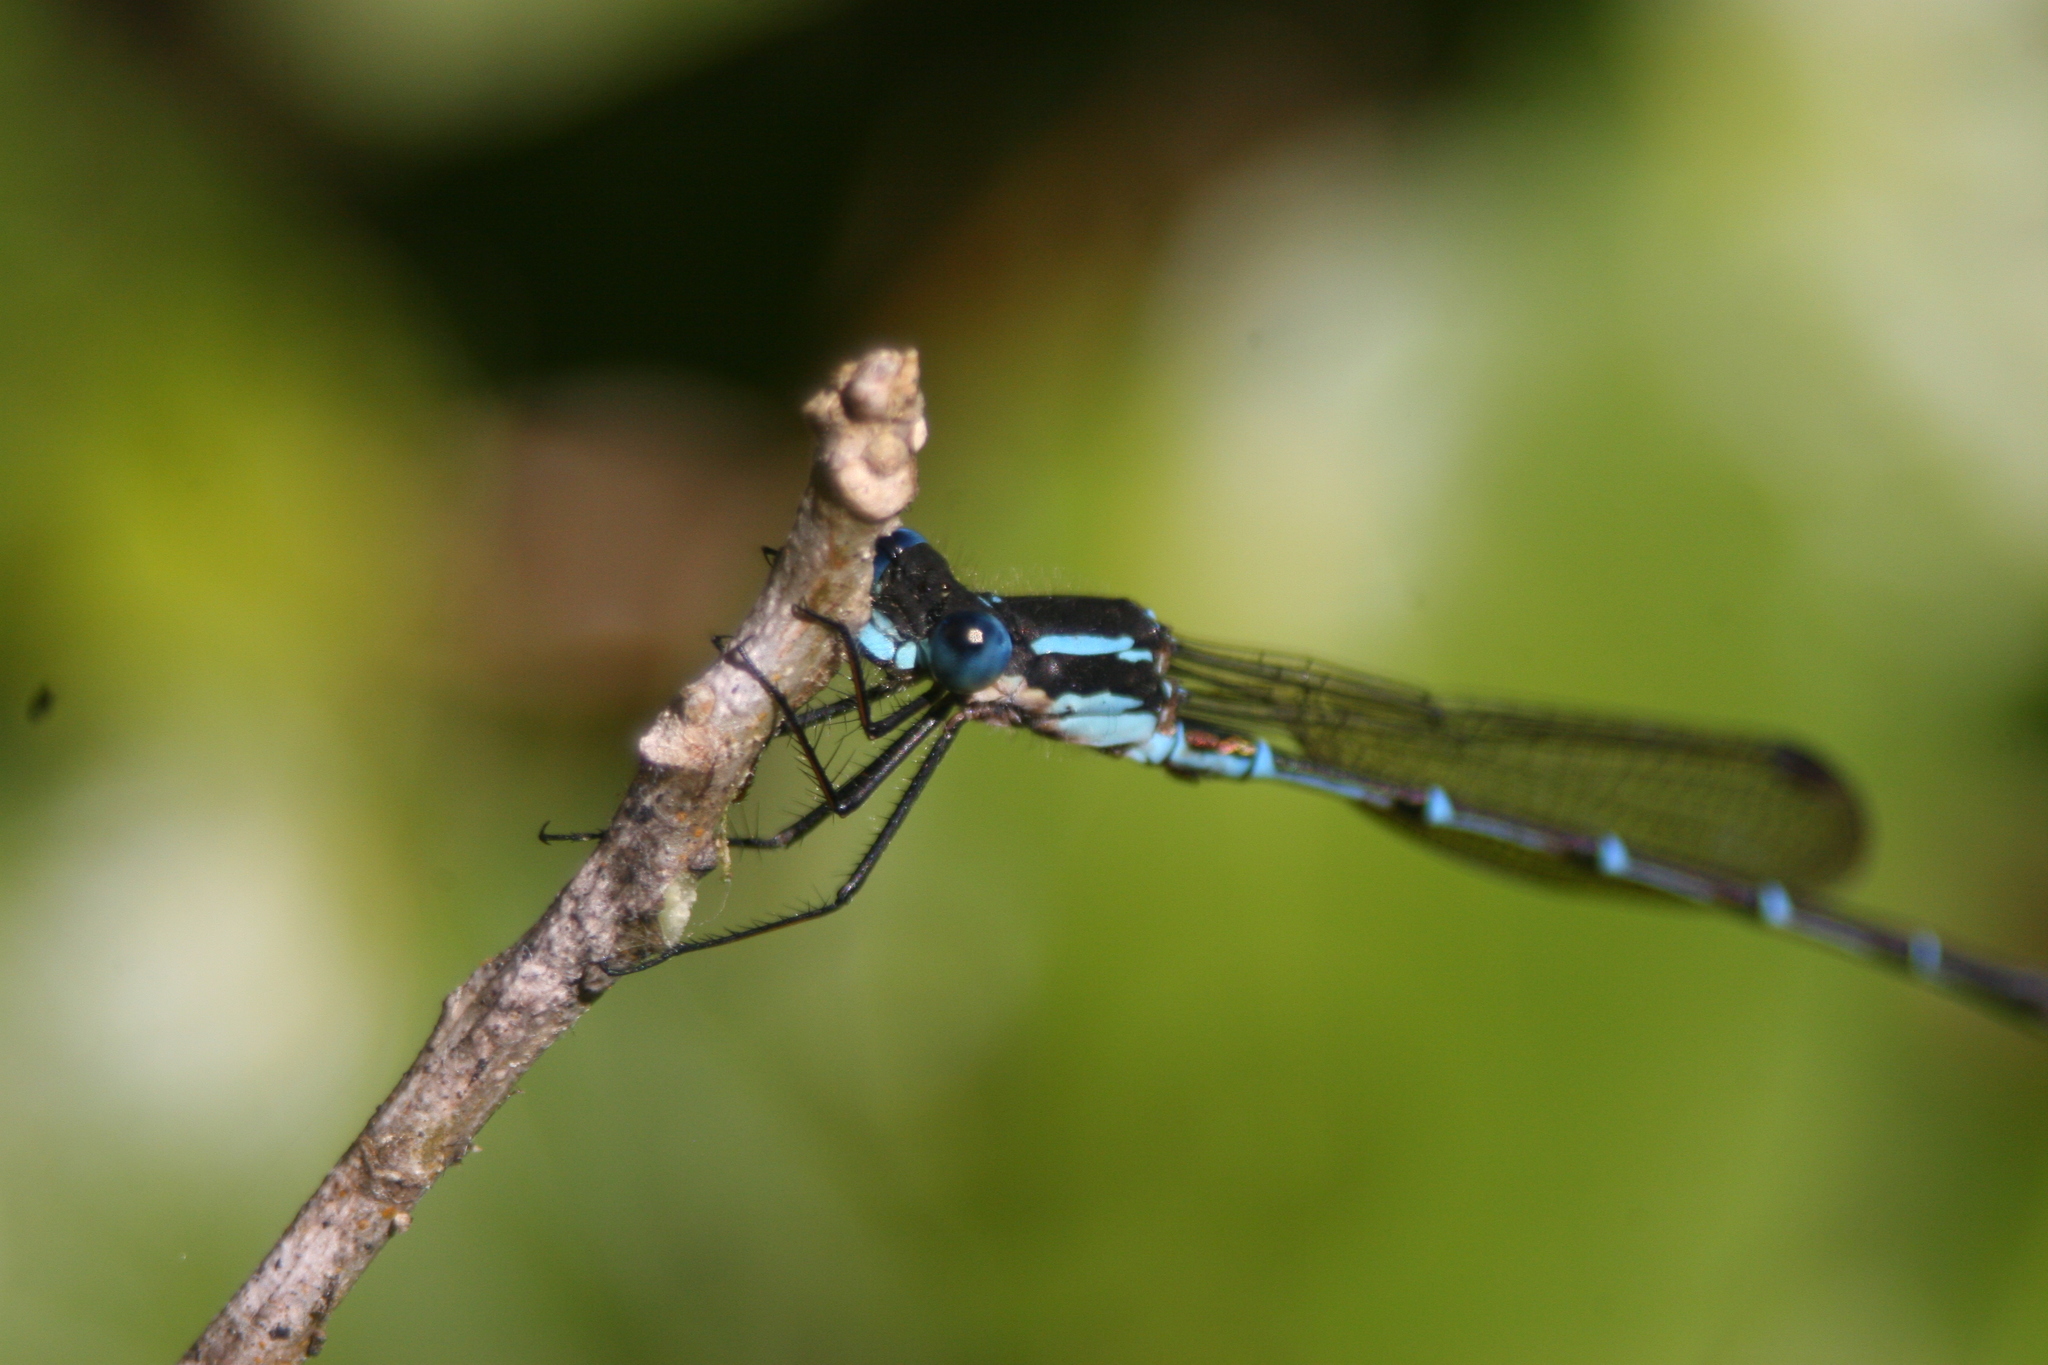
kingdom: Animalia
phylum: Arthropoda
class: Insecta
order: Odonata
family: Lestidae
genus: Austrolestes
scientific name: Austrolestes colensonis
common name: Blue damselfly
